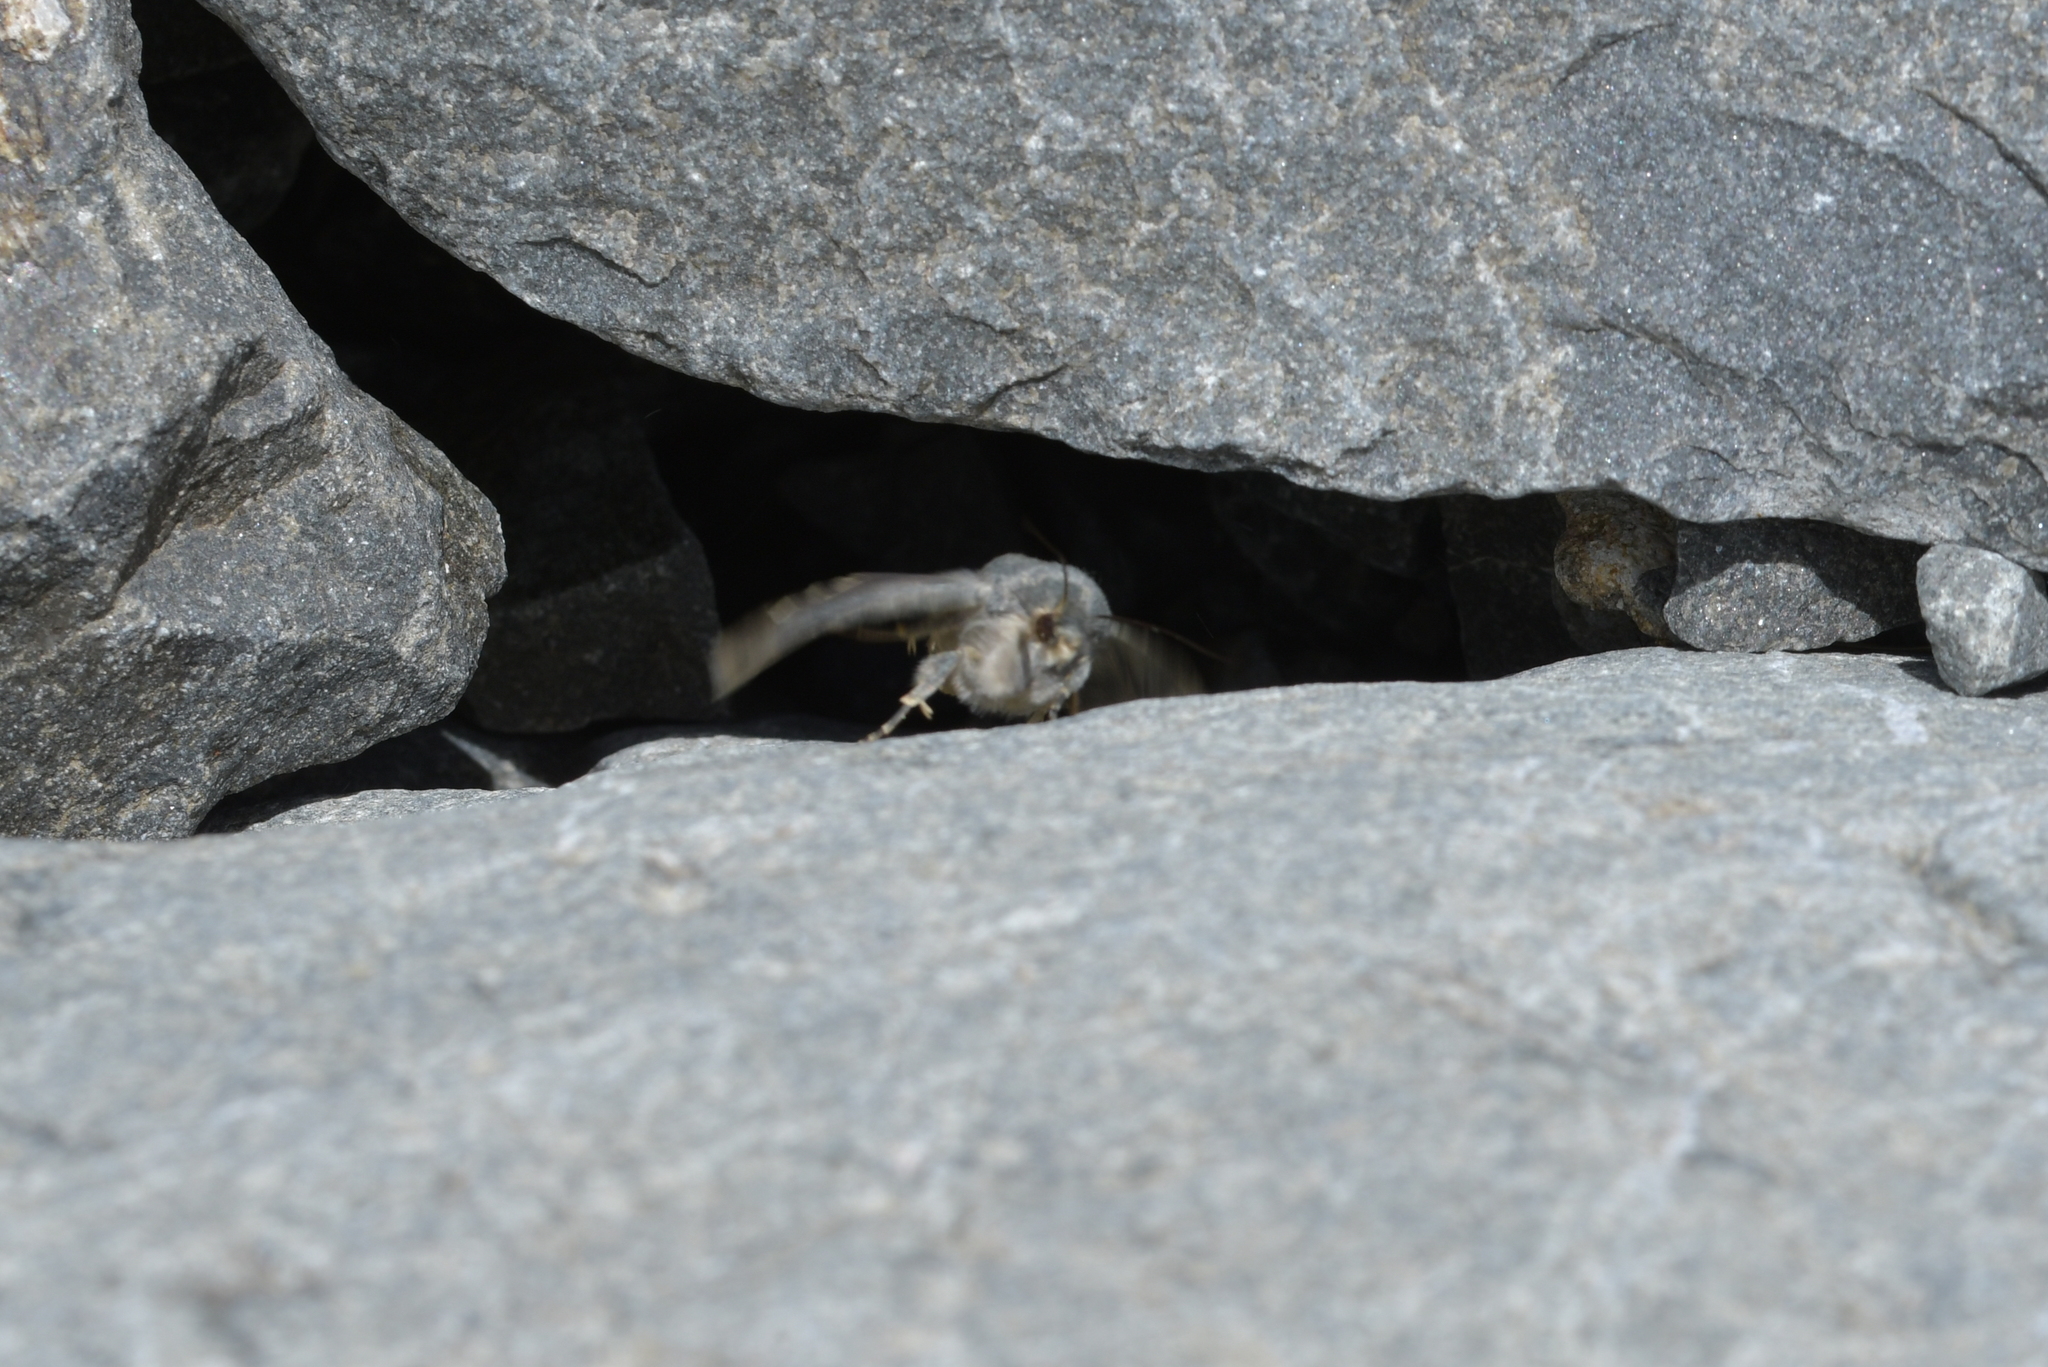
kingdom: Animalia
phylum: Arthropoda
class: Insecta
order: Lepidoptera
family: Noctuidae
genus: Physetica
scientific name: Physetica caerulea
